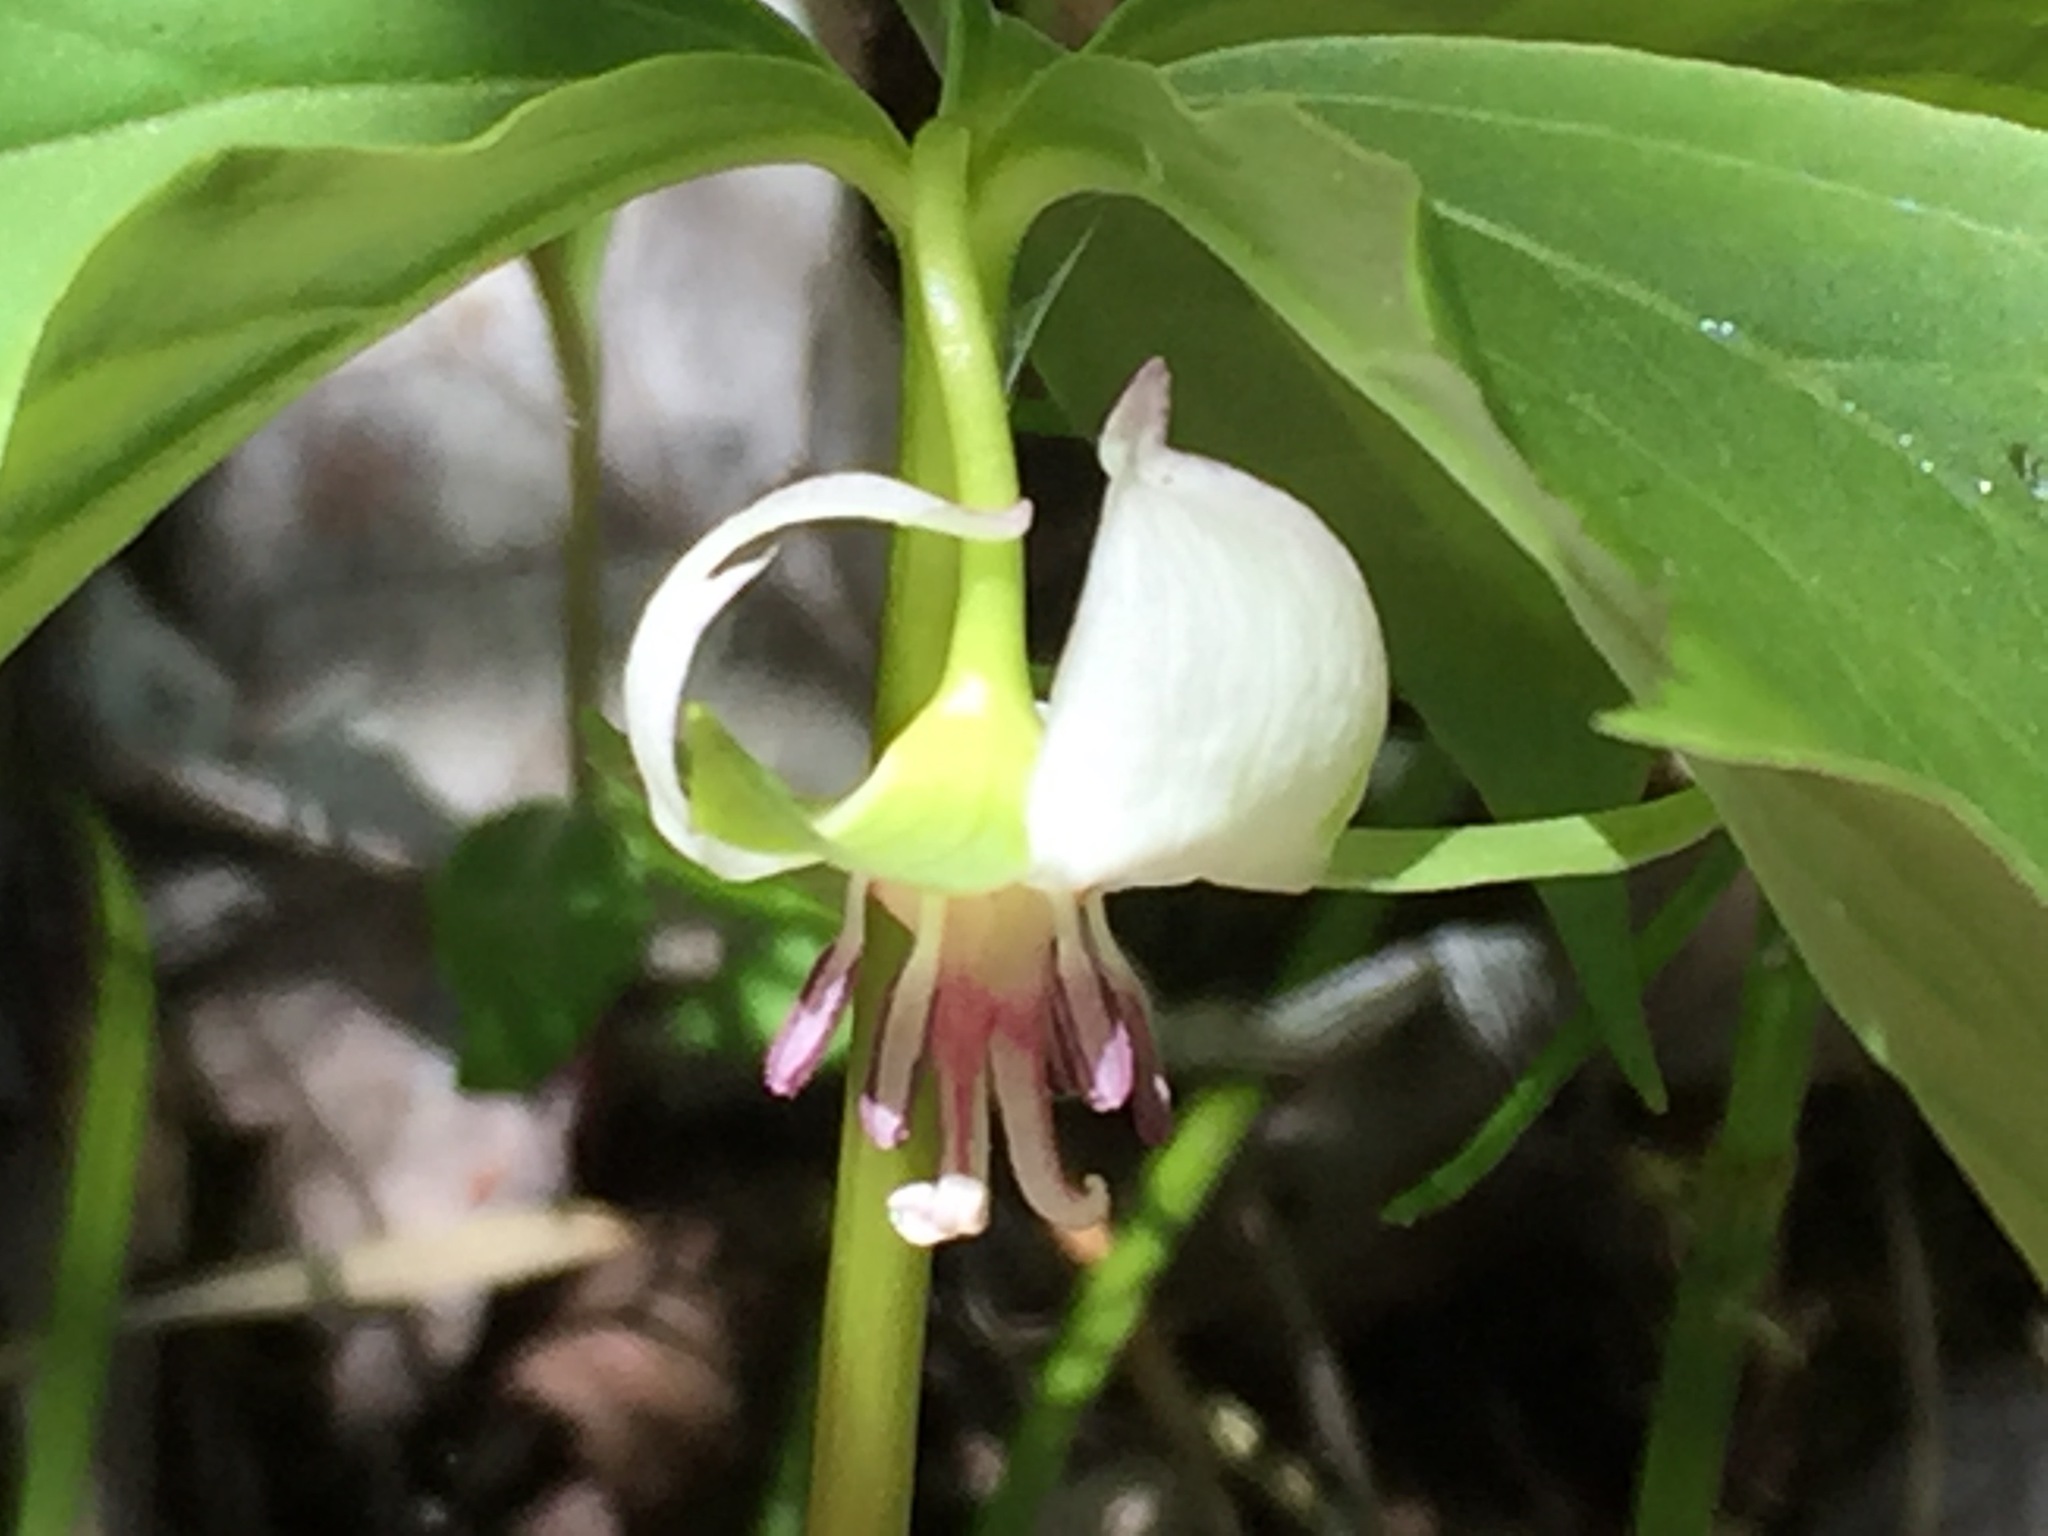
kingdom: Plantae
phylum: Tracheophyta
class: Liliopsida
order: Liliales
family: Melanthiaceae
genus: Trillium
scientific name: Trillium cernuum
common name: Nodding trillium
